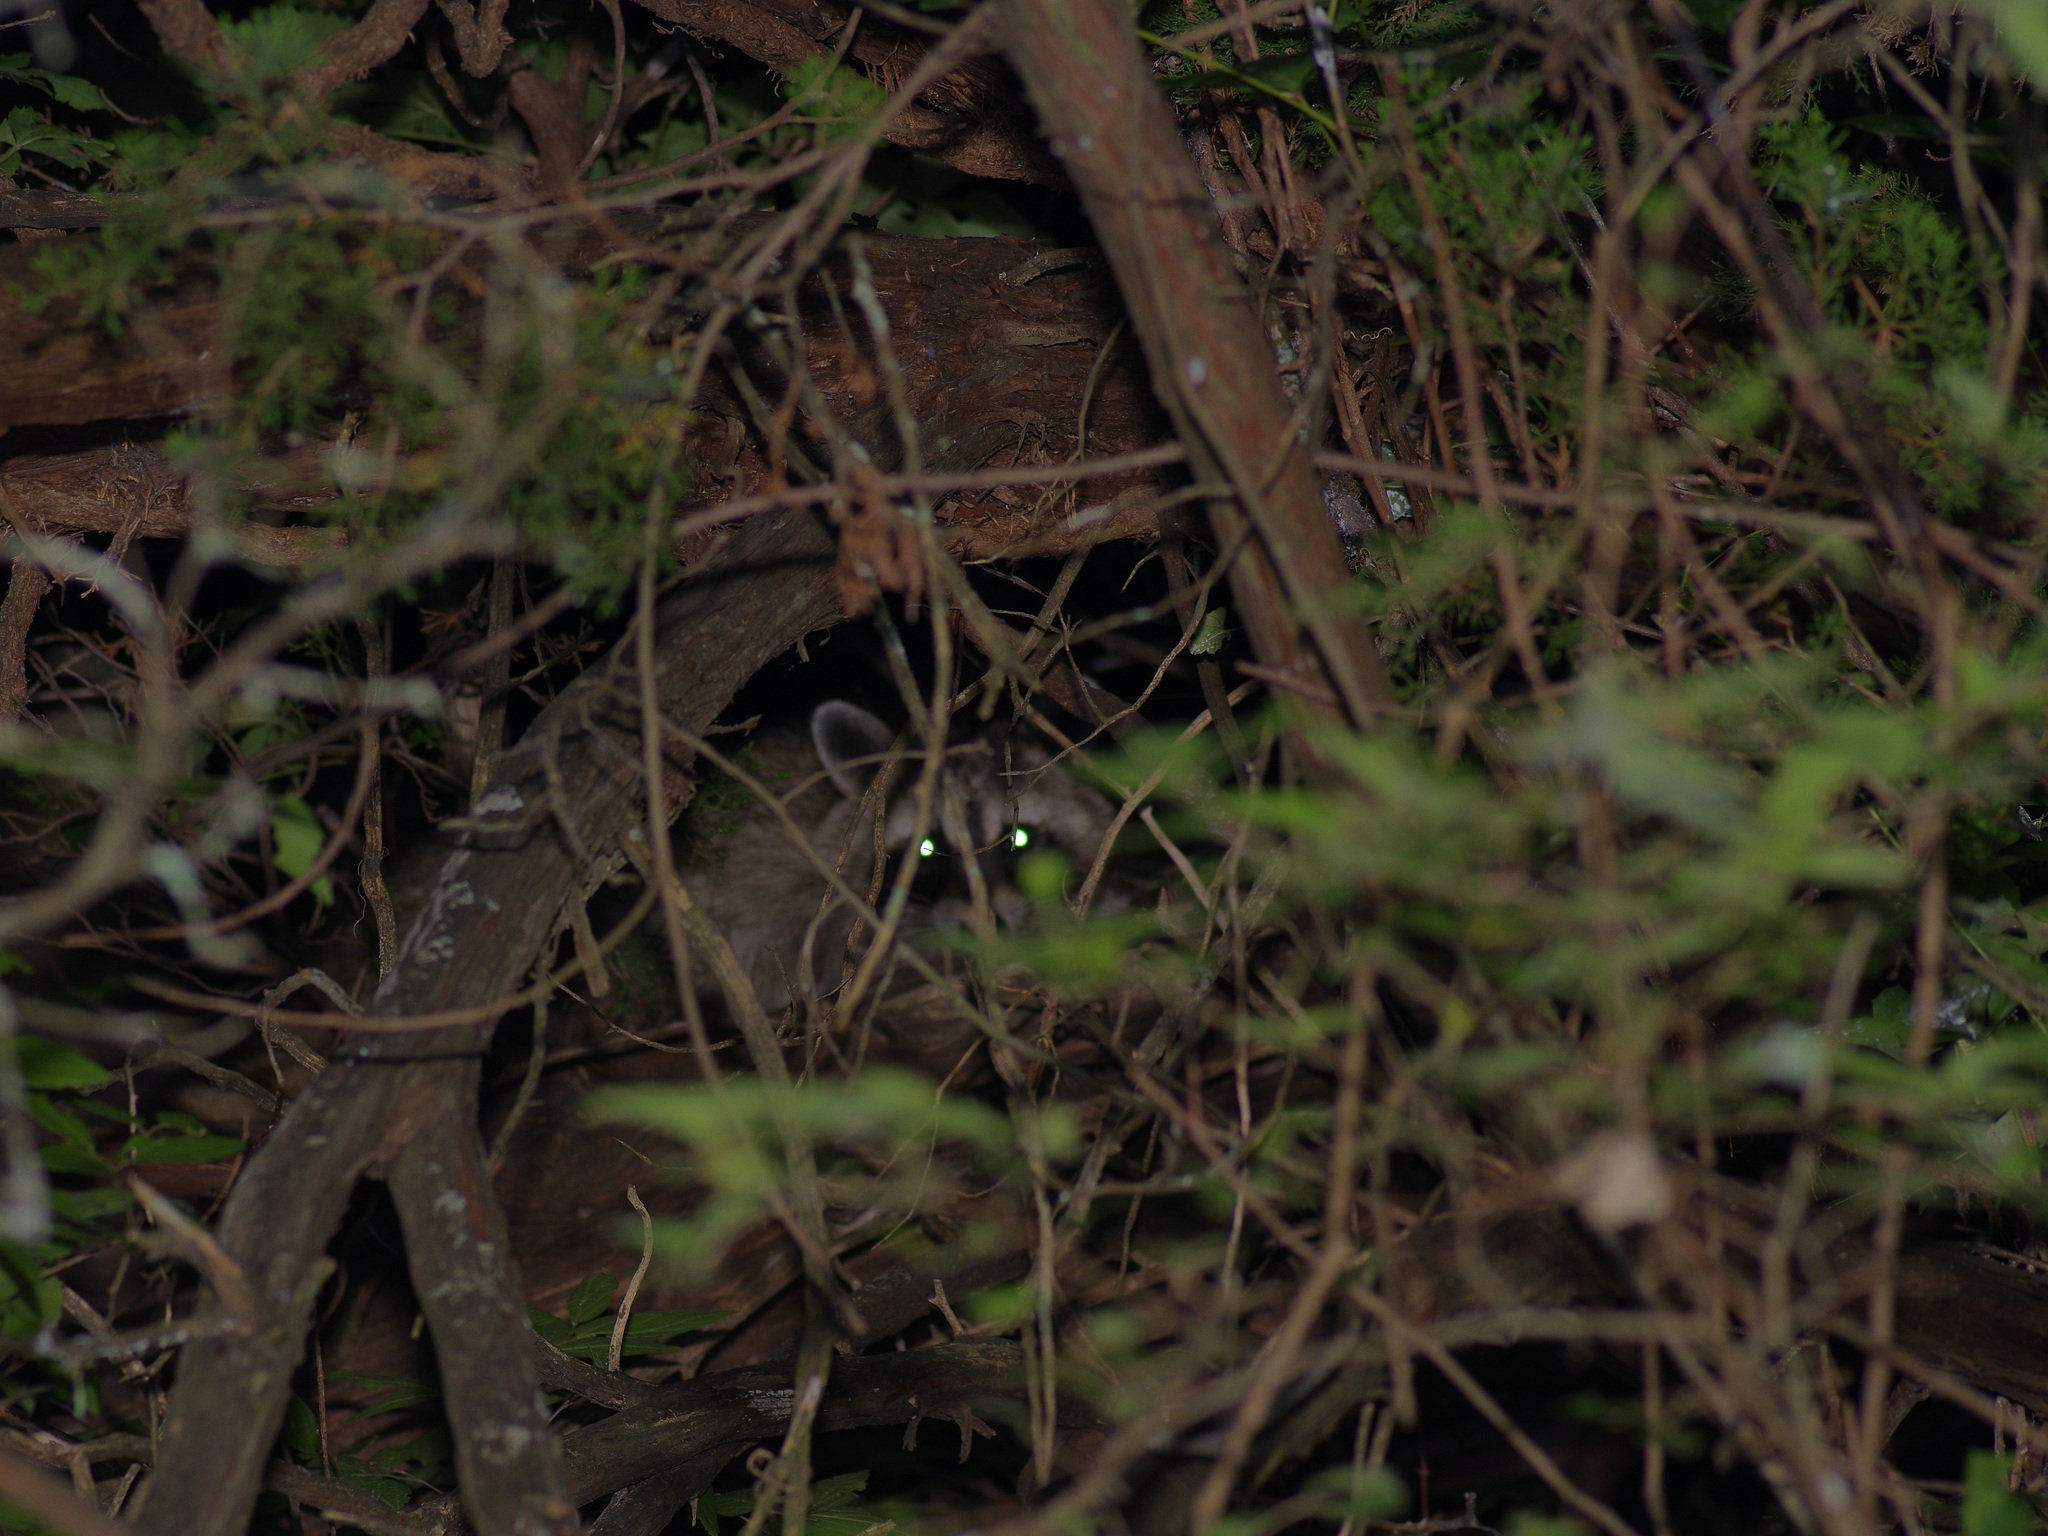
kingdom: Animalia
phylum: Chordata
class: Mammalia
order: Carnivora
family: Procyonidae
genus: Procyon
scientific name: Procyon lotor
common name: Raccoon
